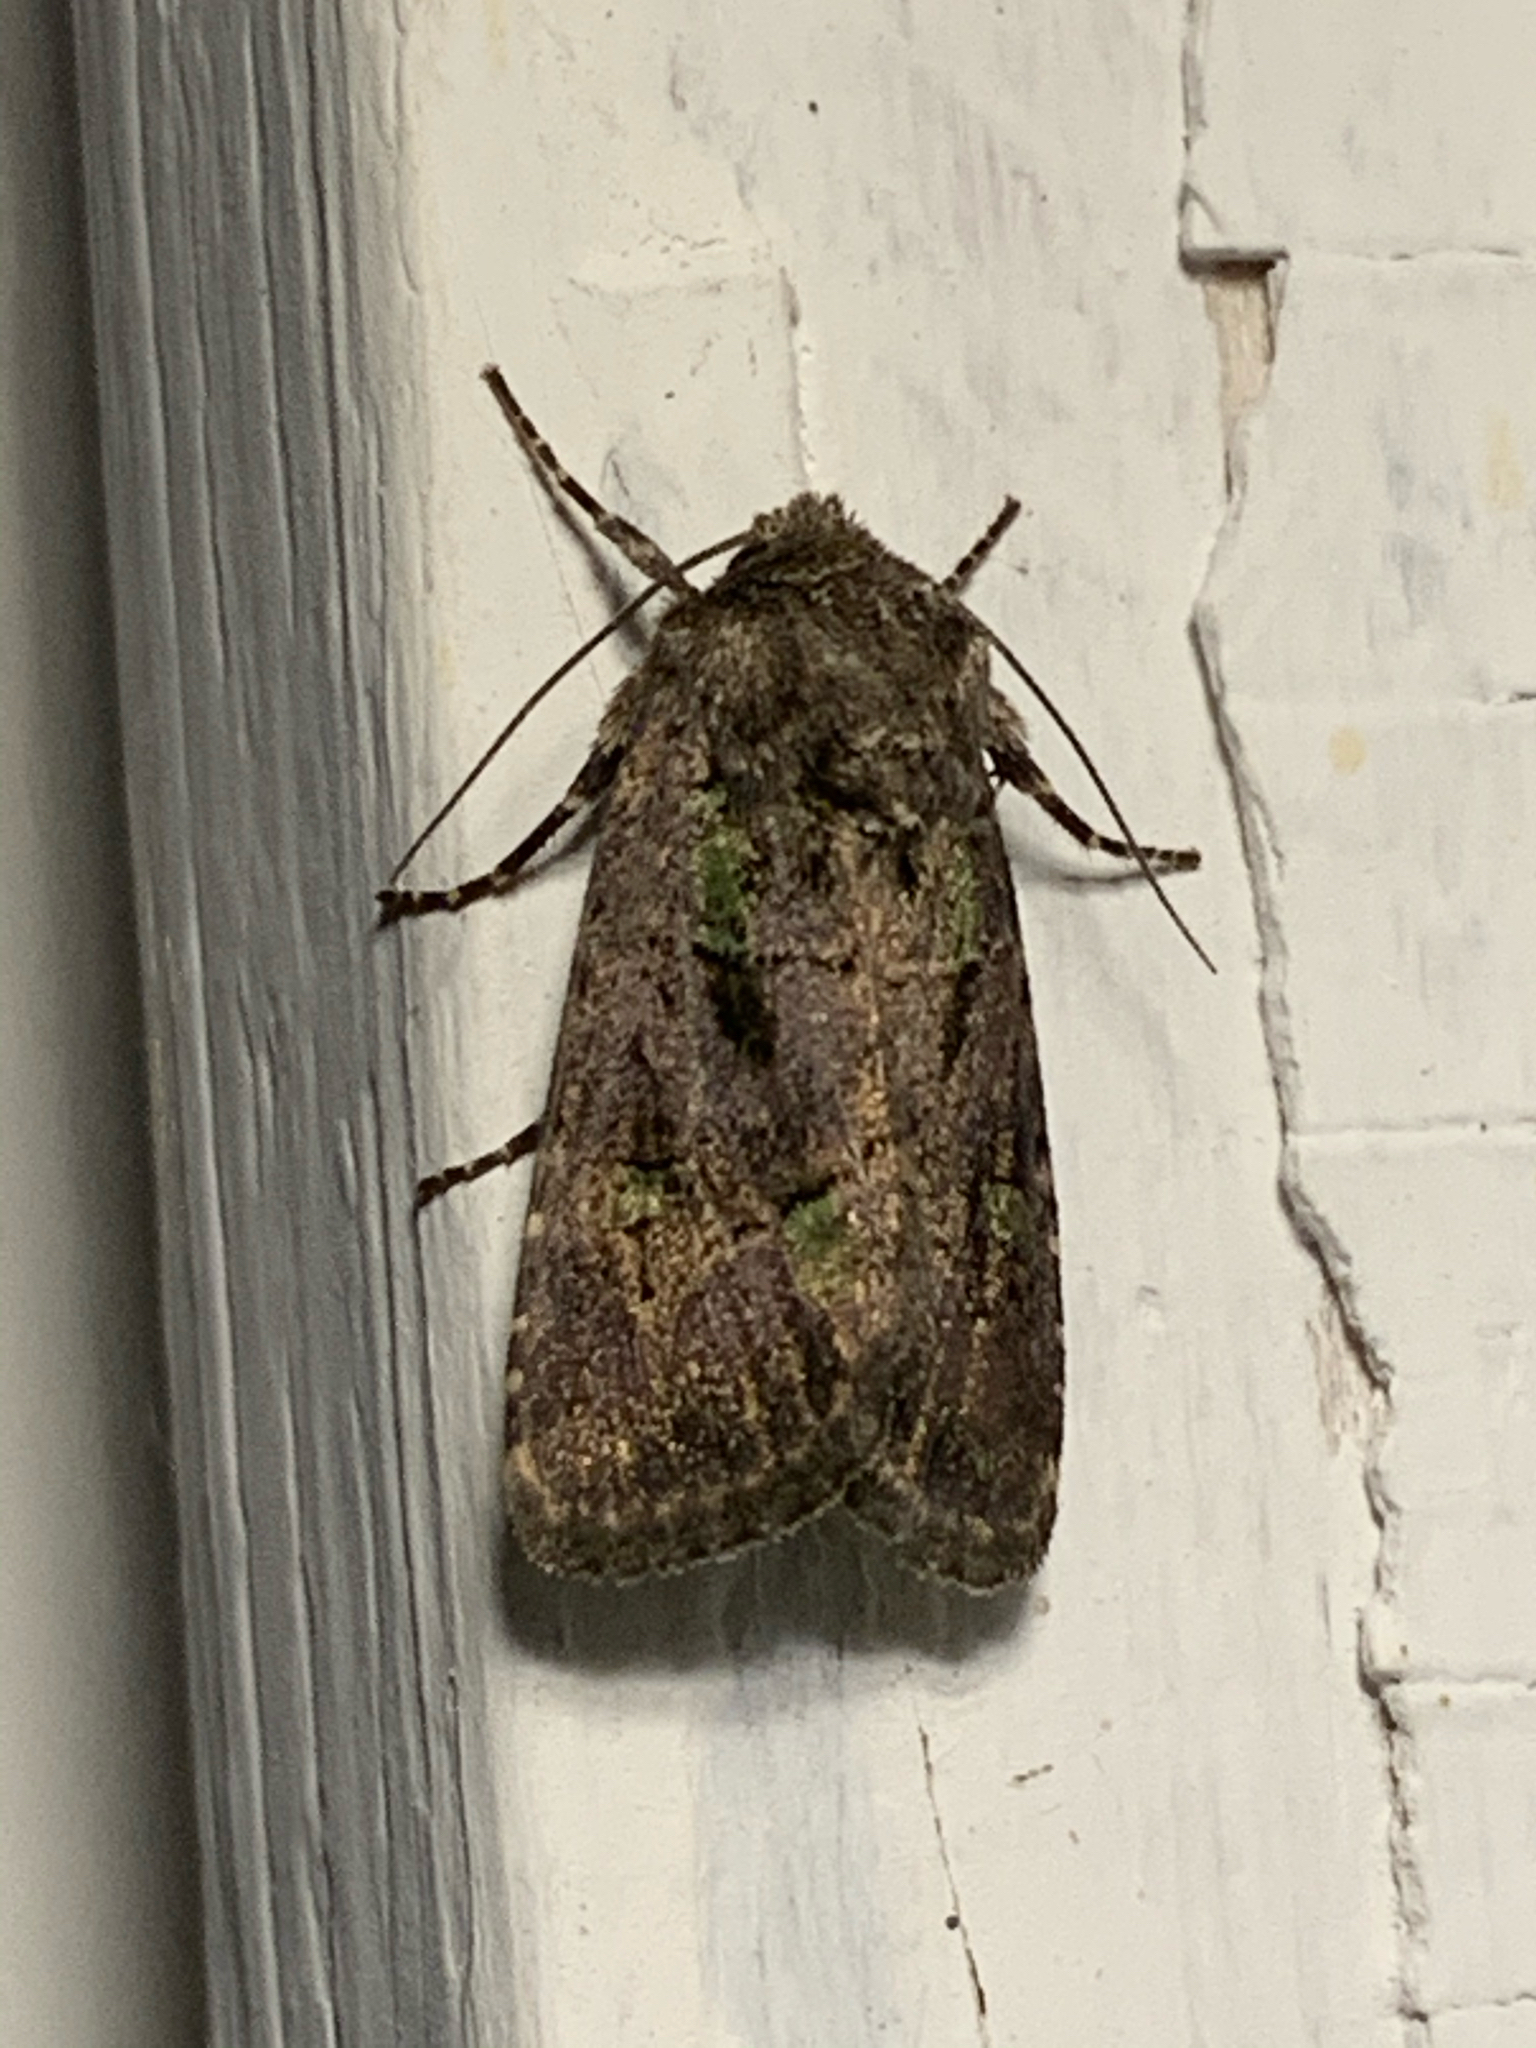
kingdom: Animalia
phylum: Arthropoda
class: Insecta
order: Lepidoptera
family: Noctuidae
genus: Lacinipolia
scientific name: Lacinipolia renigera
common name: Kidney-spotted minor
